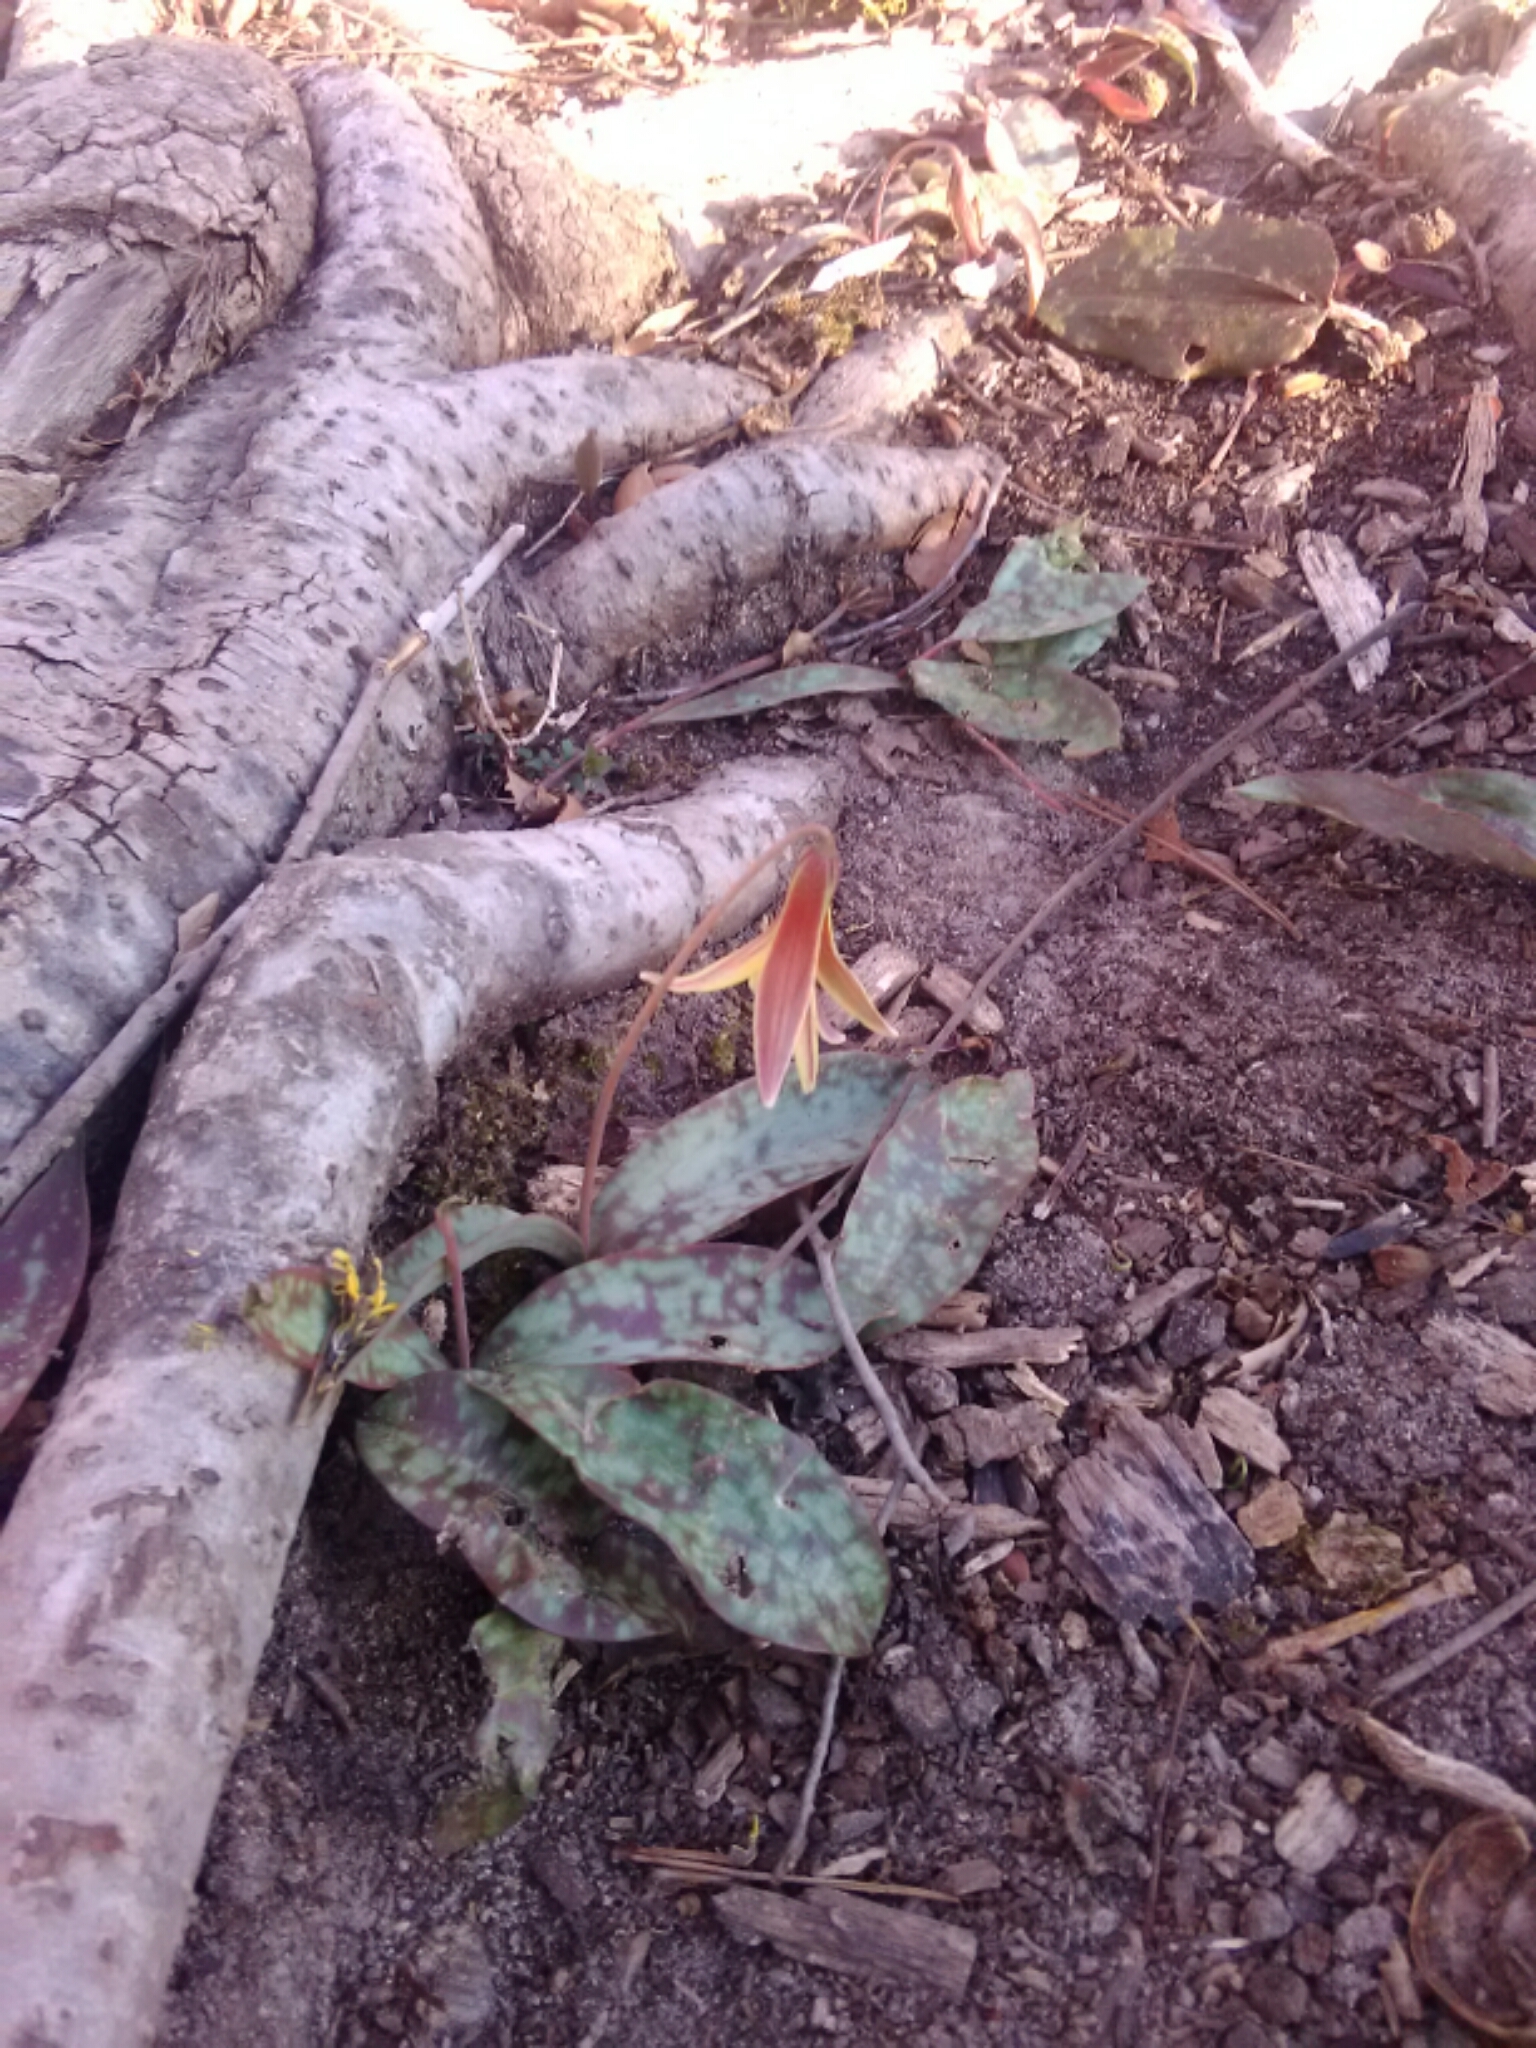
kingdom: Plantae
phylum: Tracheophyta
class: Liliopsida
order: Liliales
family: Liliaceae
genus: Erythronium
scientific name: Erythronium umbilicatum
